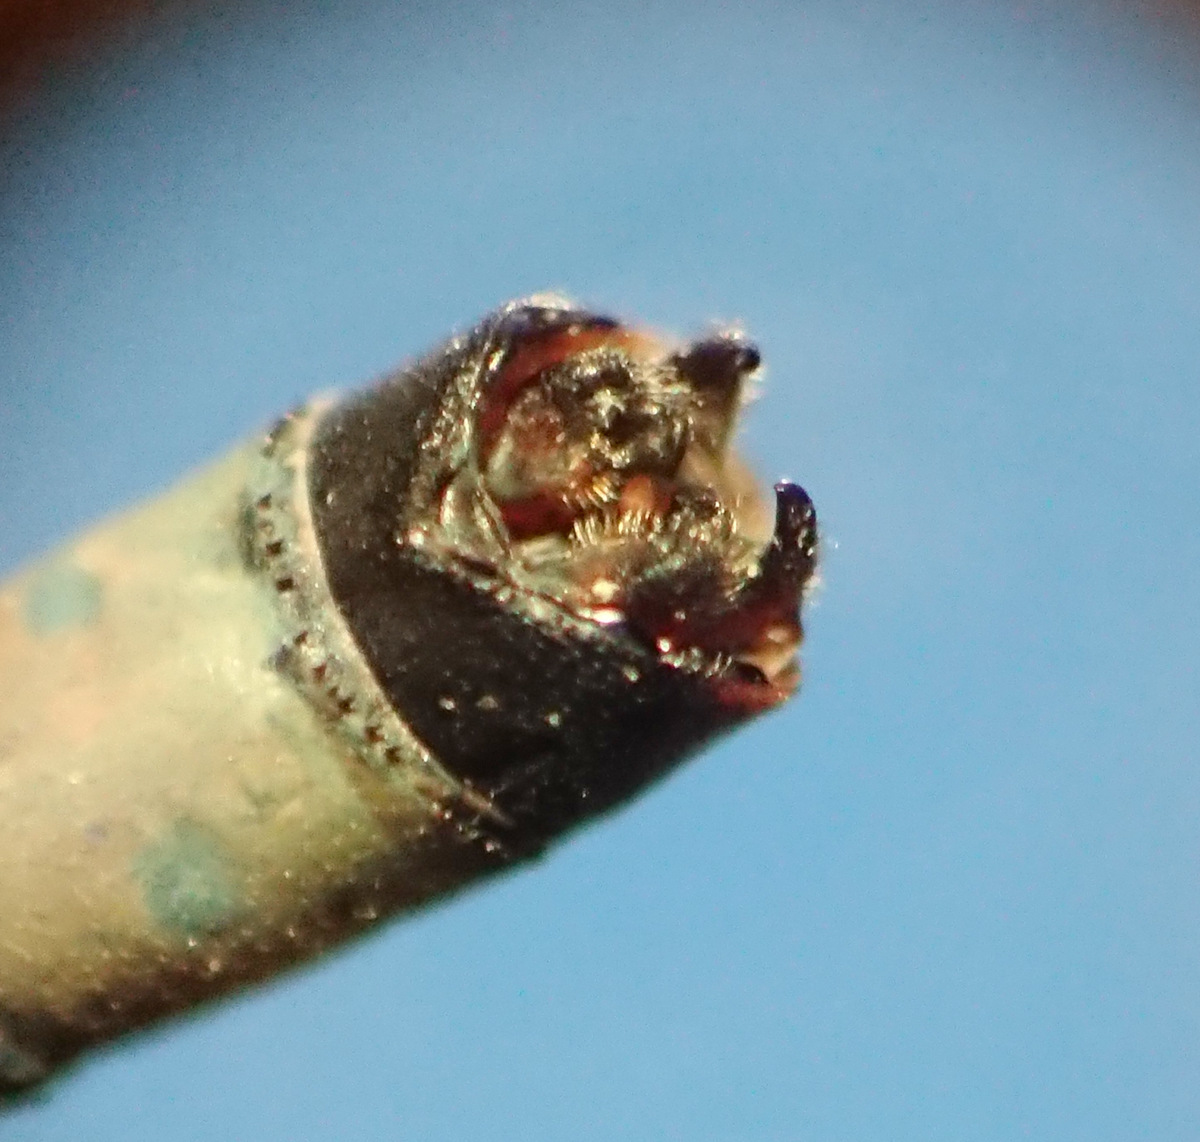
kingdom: Animalia
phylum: Arthropoda
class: Insecta
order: Odonata
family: Coenagrionidae
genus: Enallagma
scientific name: Enallagma vernale
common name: Vernal bluet
